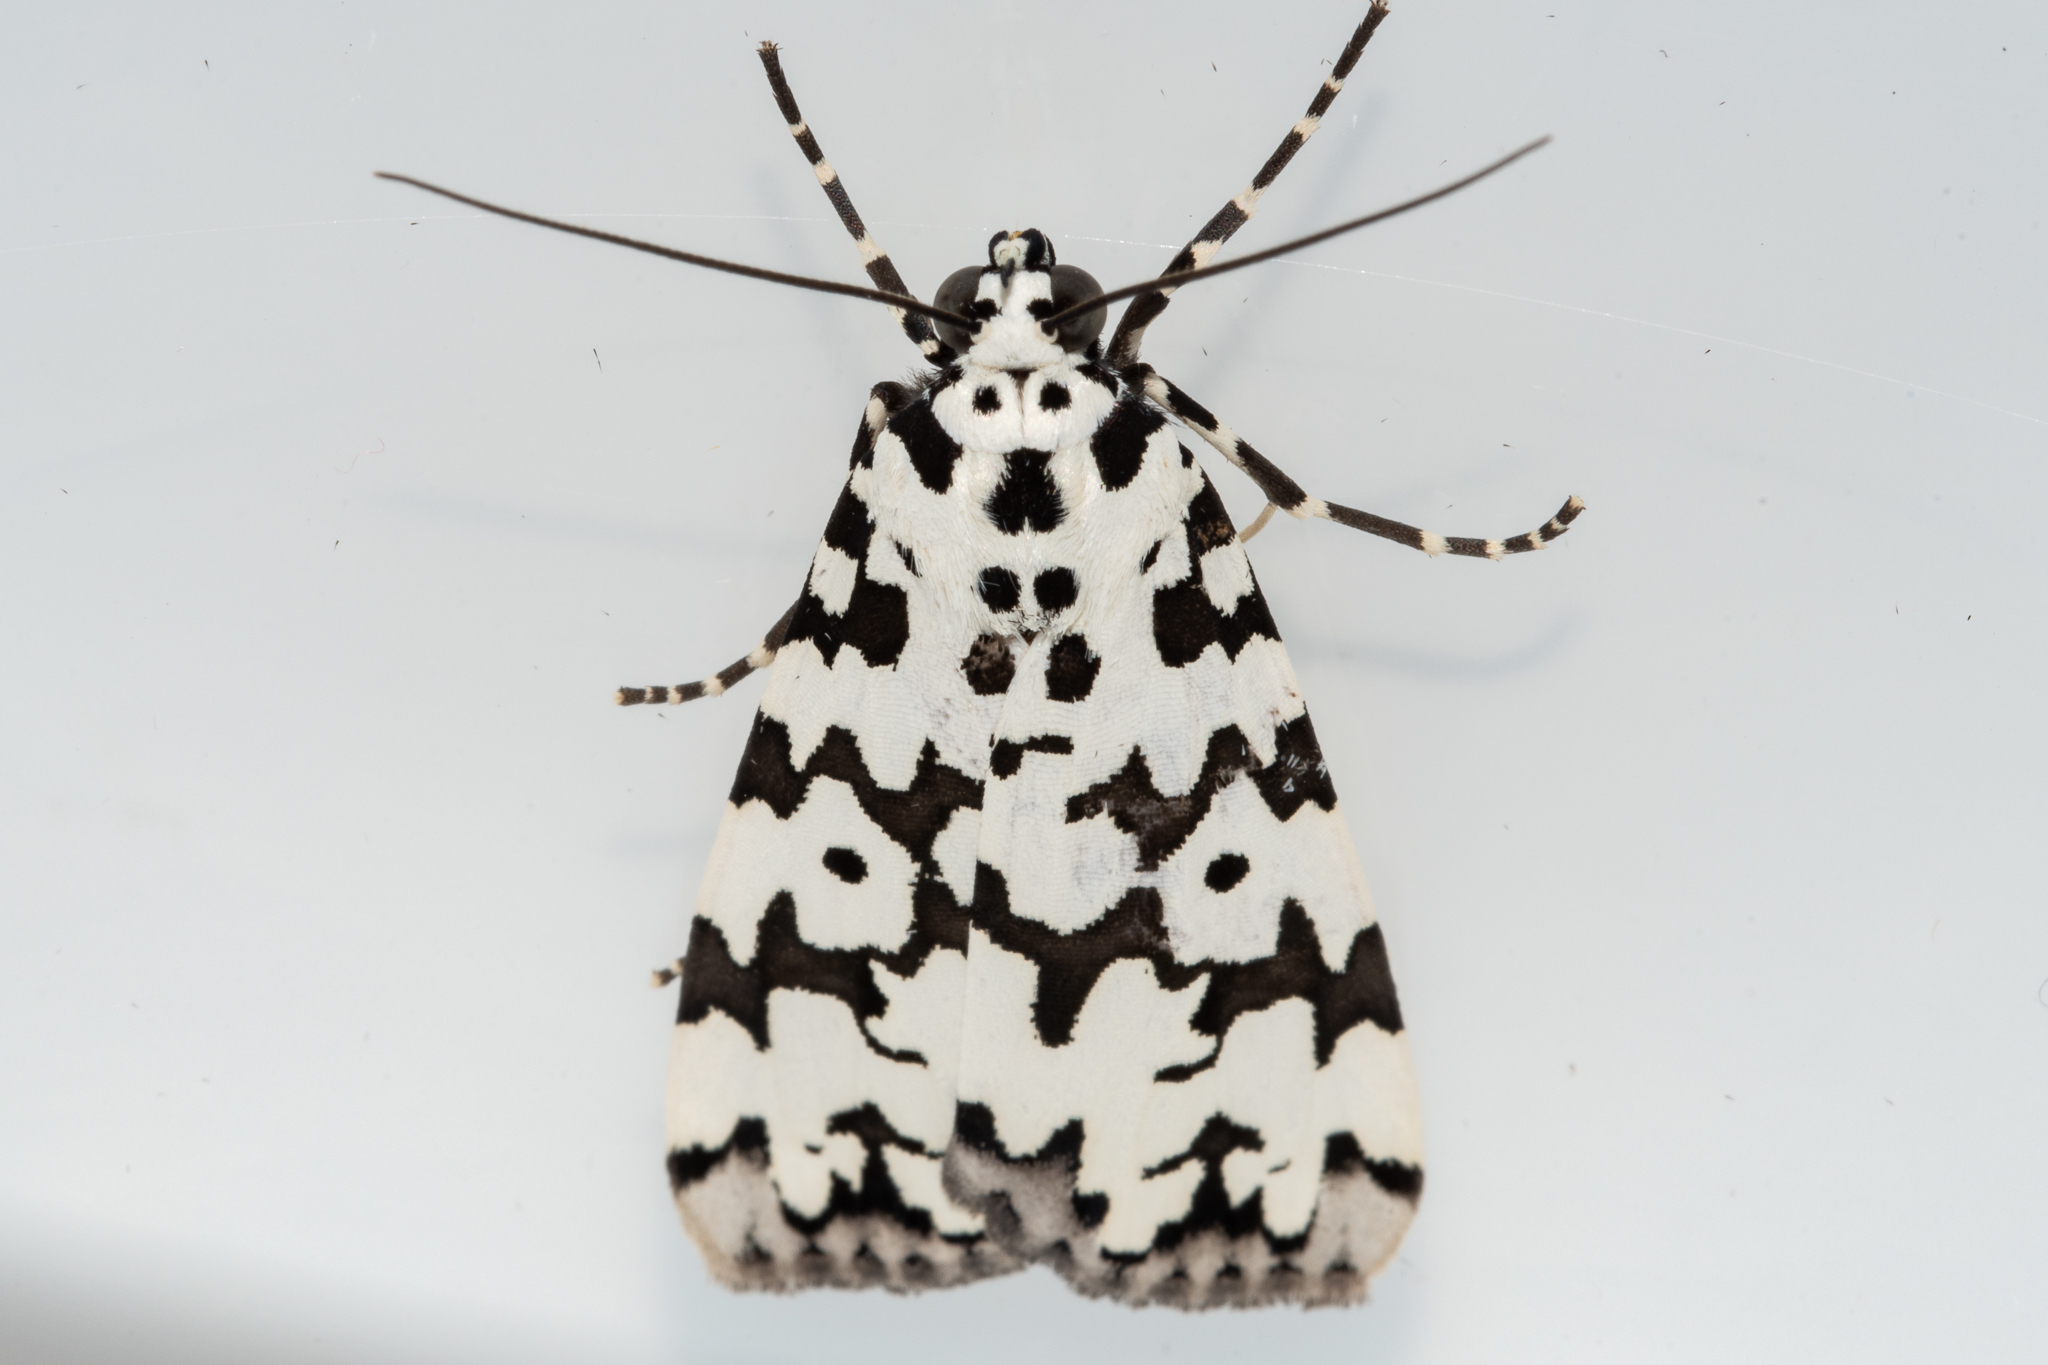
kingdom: Animalia
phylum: Arthropoda
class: Insecta
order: Lepidoptera
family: Erebidae
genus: Digama
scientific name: Digama strabonis
